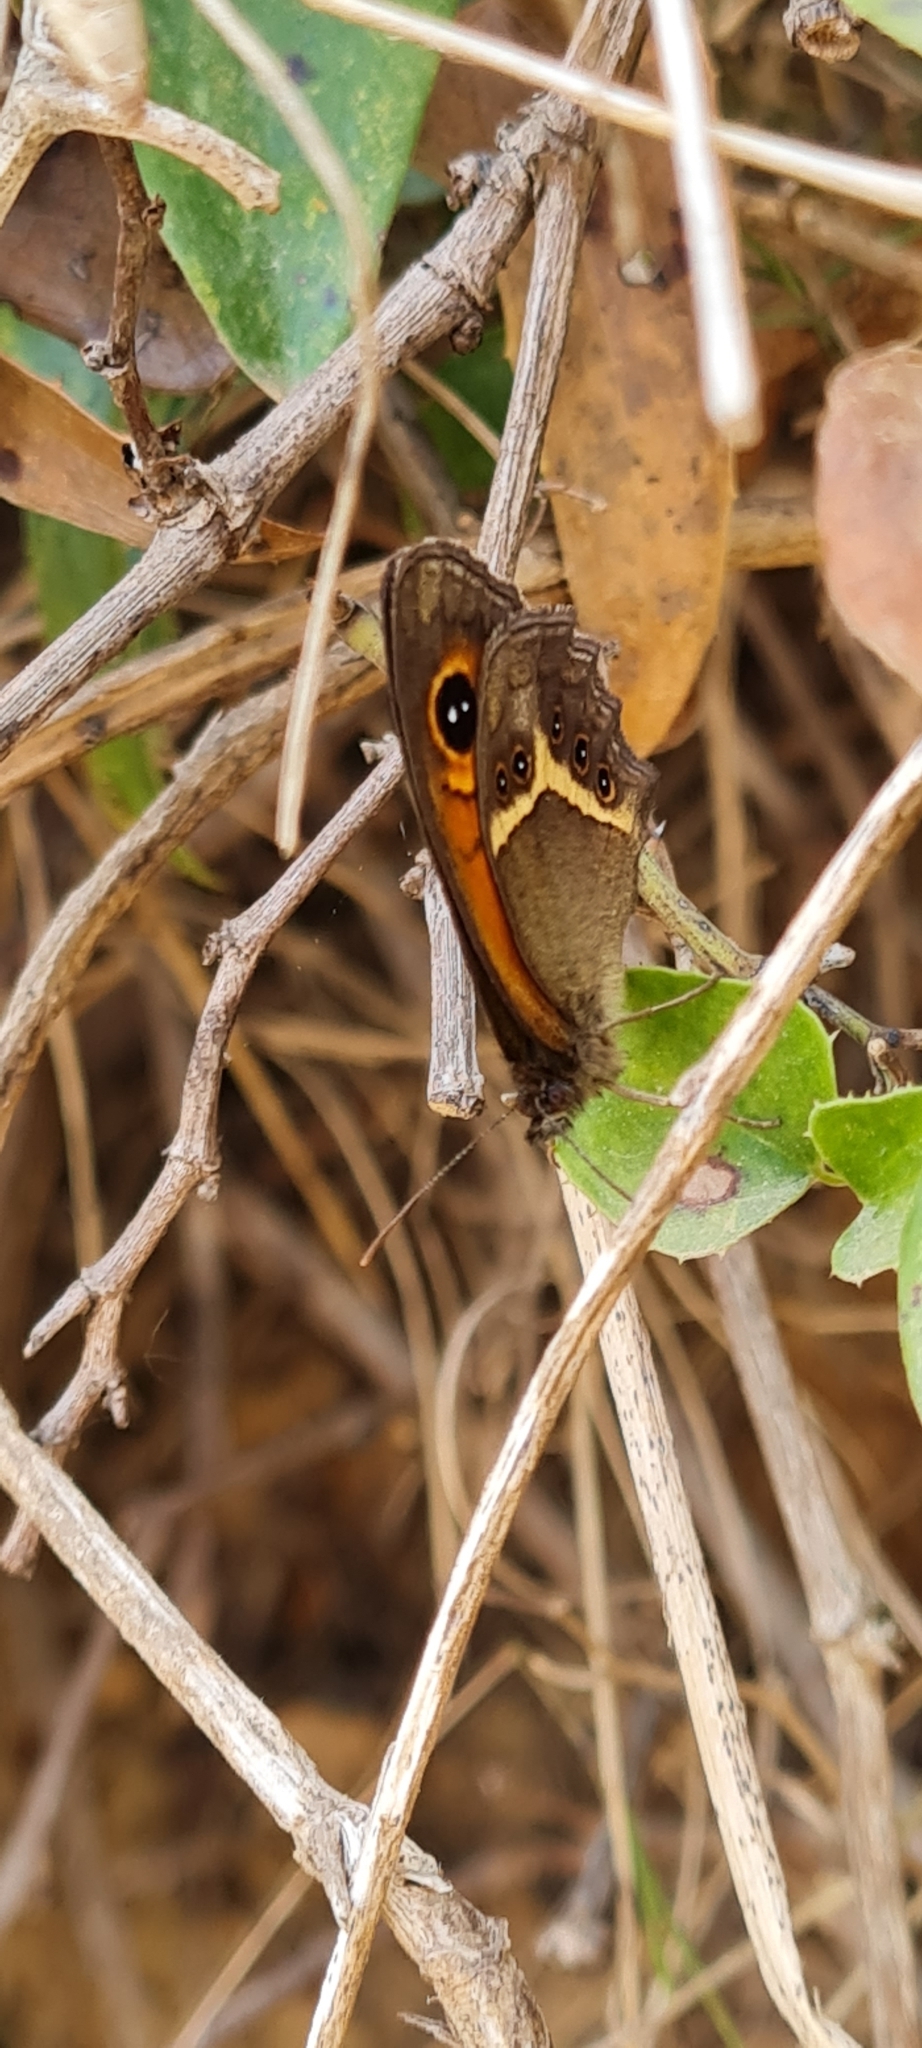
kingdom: Animalia
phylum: Arthropoda
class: Insecta
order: Lepidoptera
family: Nymphalidae
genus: Pyronia
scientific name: Pyronia bathseba
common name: Spanish gatekeeper
